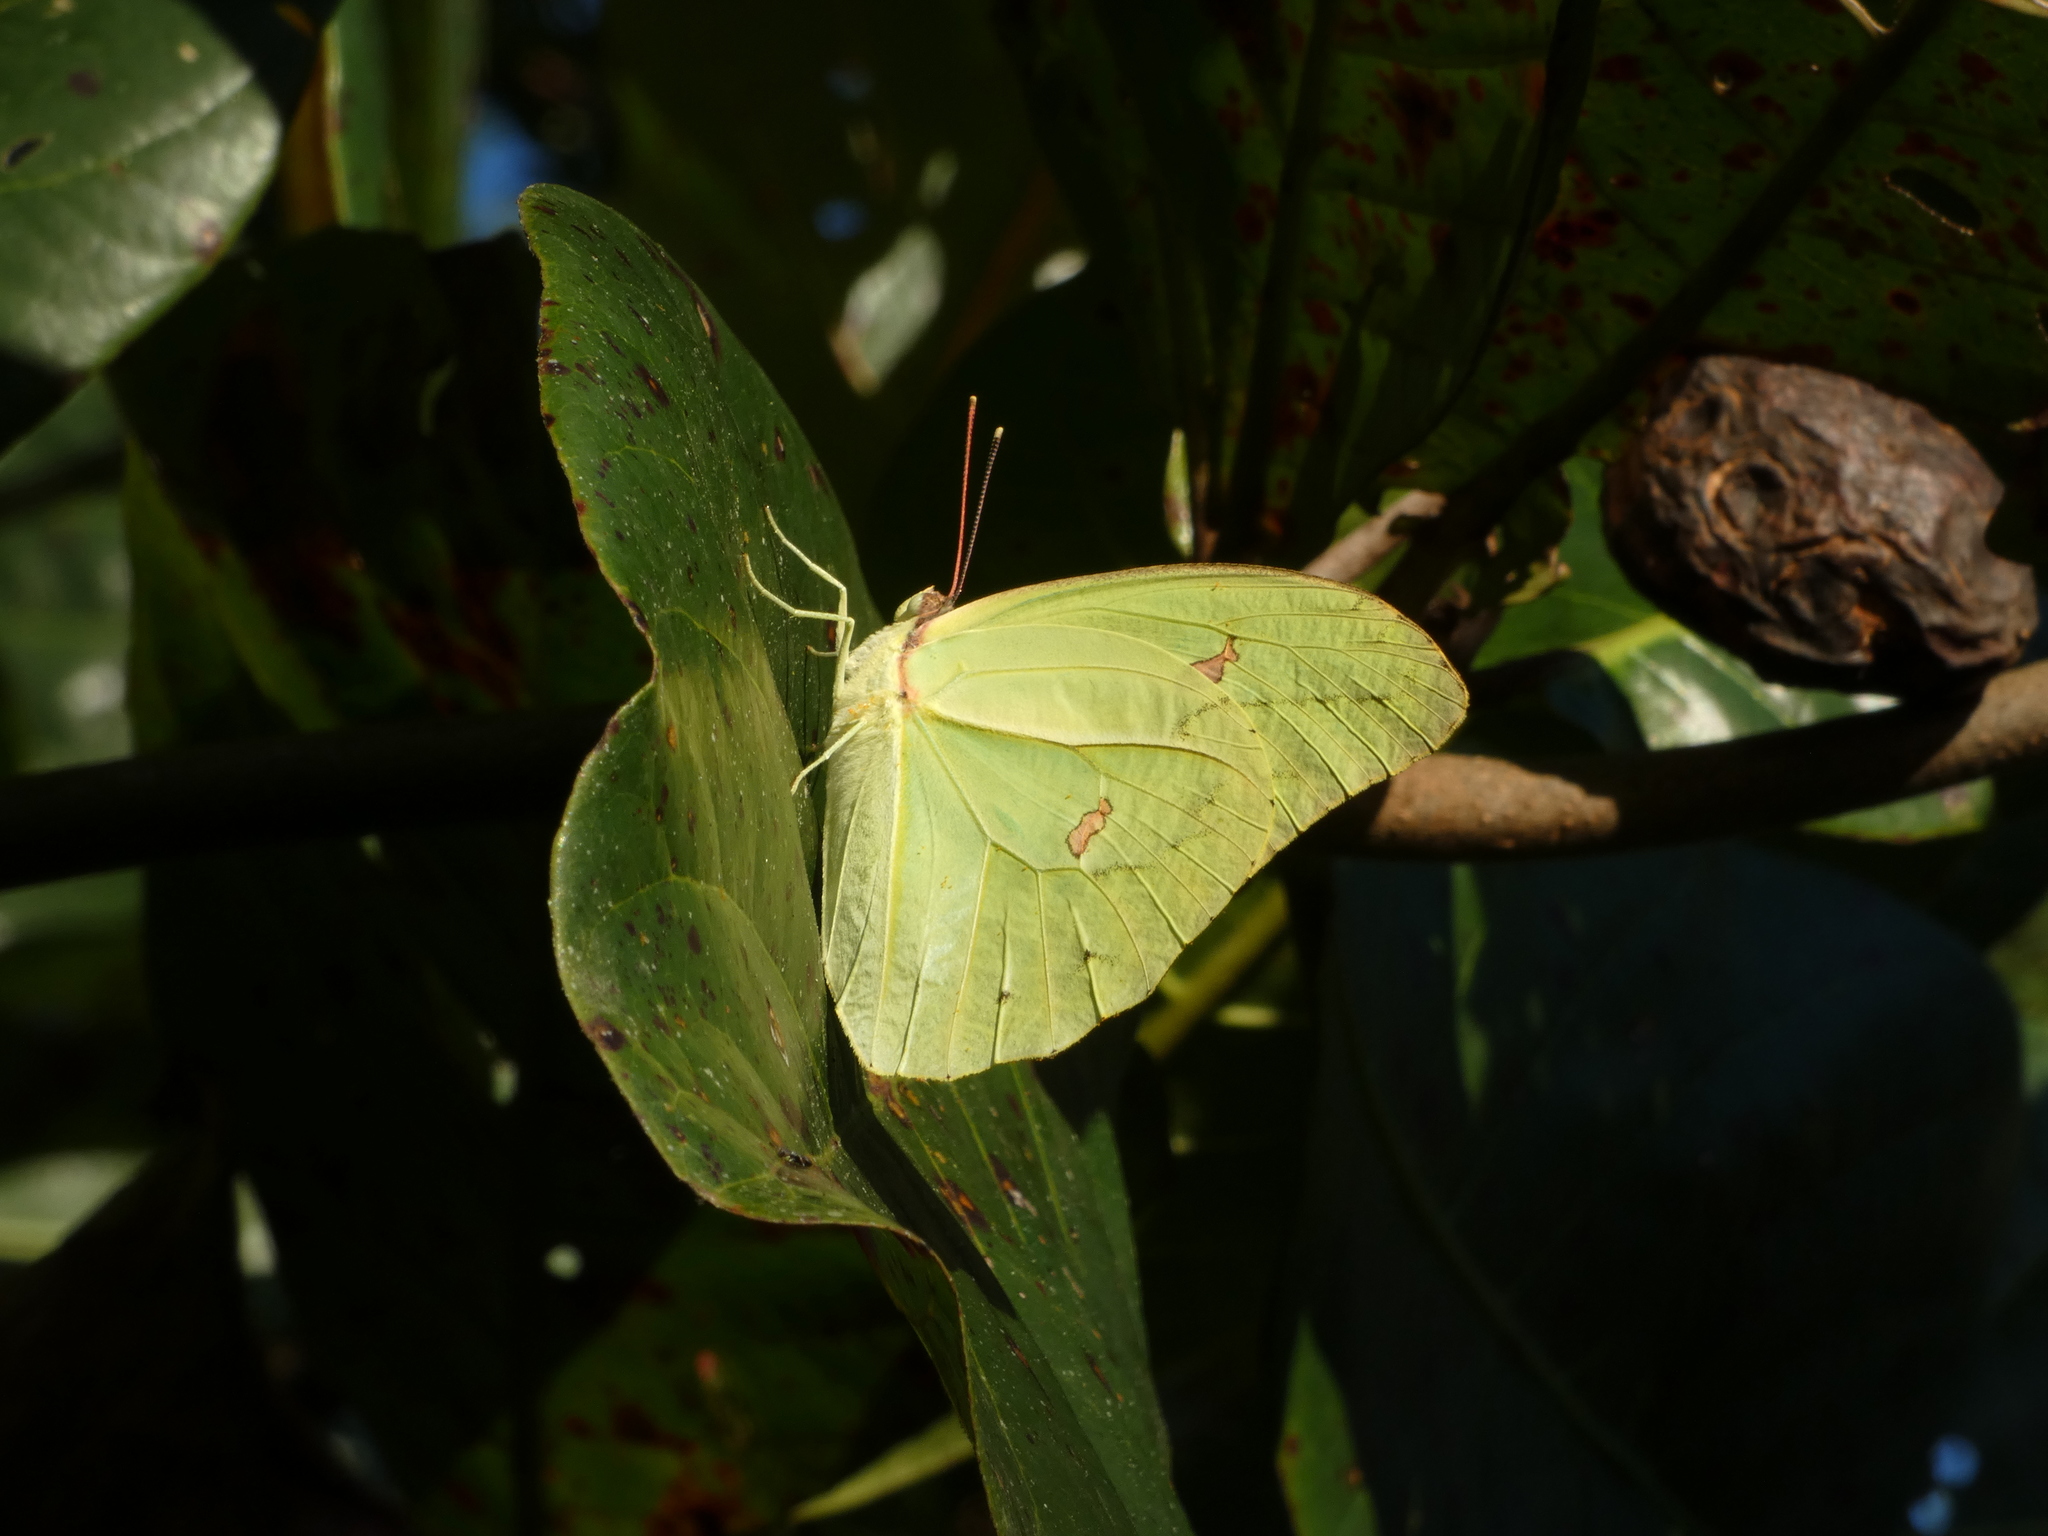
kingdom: Animalia
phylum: Arthropoda
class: Insecta
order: Lepidoptera
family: Pieridae
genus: Anteos
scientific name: Anteos menippe
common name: Orangetip angled-sulphur
